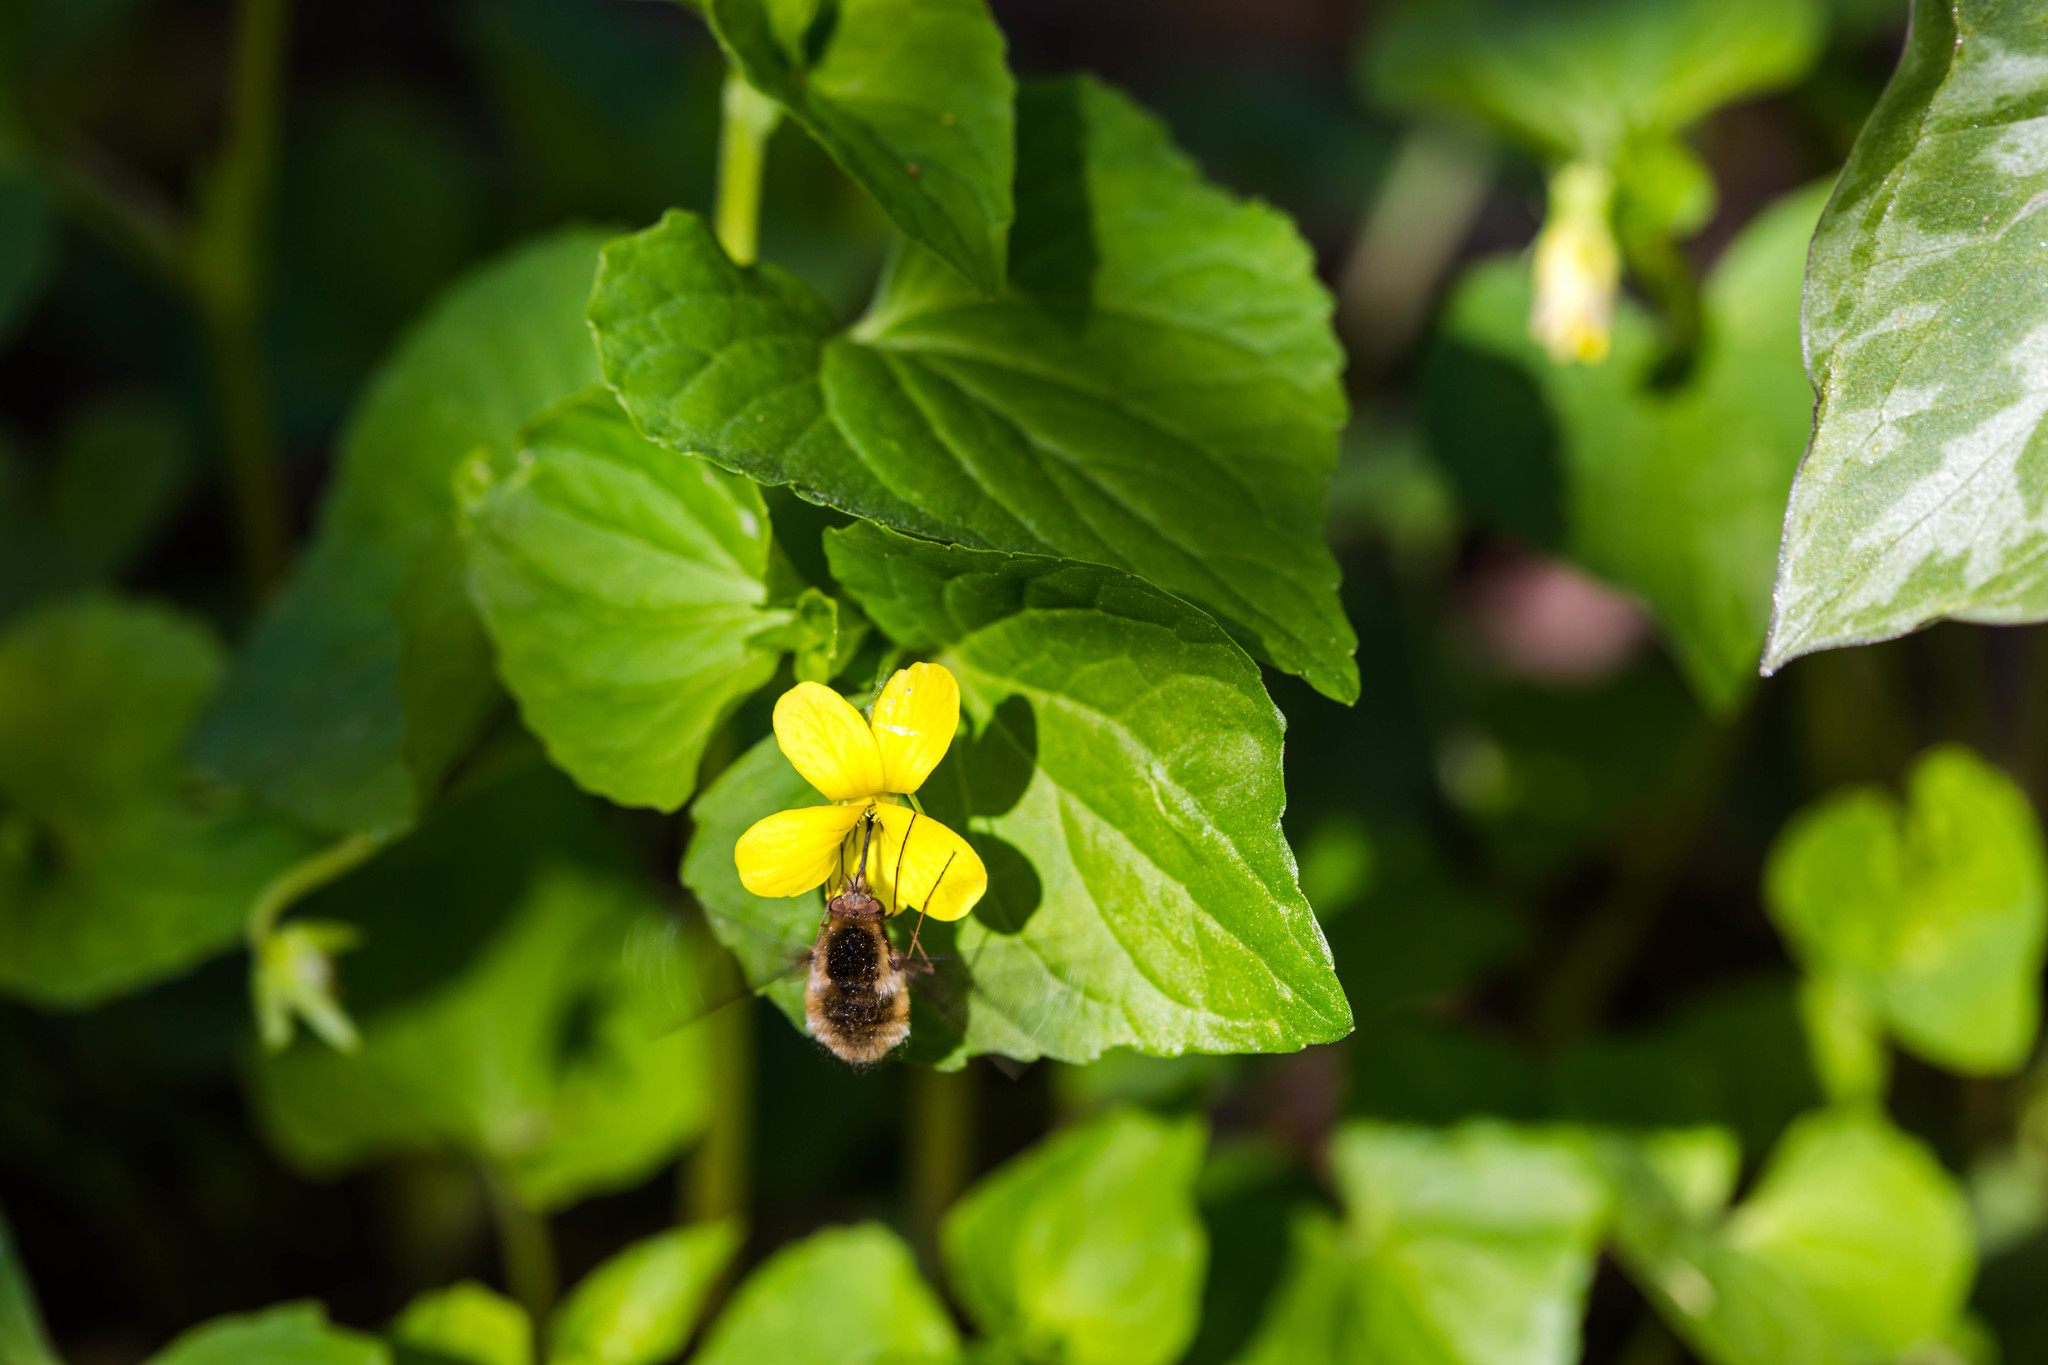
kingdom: Animalia
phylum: Arthropoda
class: Insecta
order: Diptera
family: Bombyliidae
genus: Bombylius
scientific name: Bombylius major
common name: Bee fly
